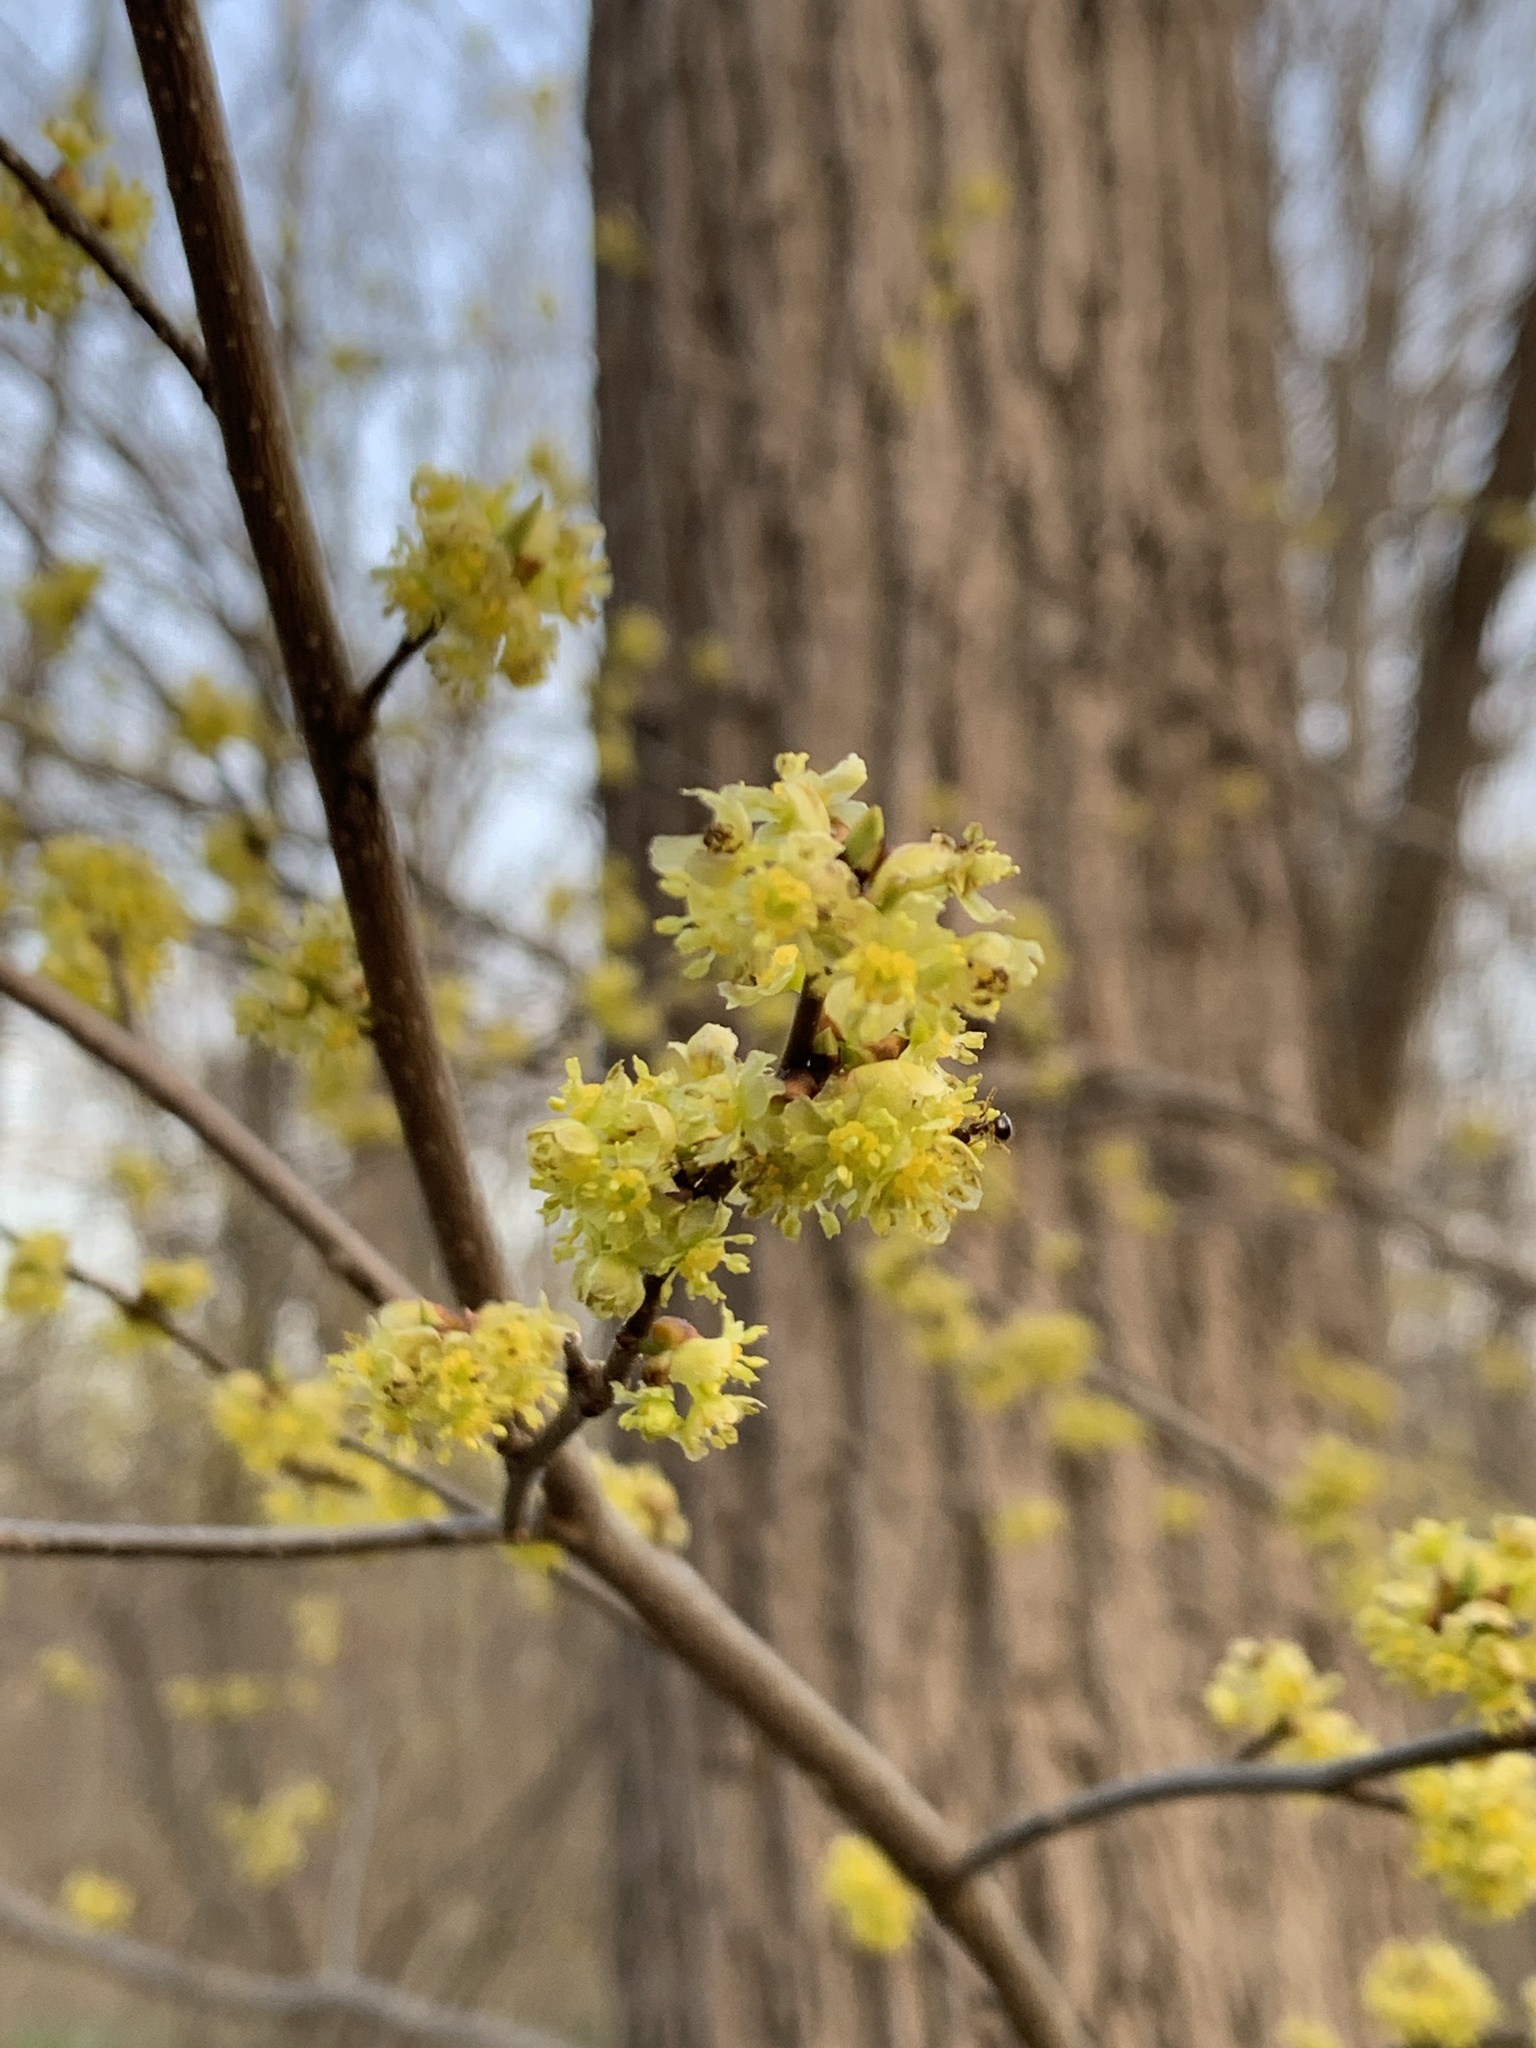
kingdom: Plantae
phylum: Tracheophyta
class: Magnoliopsida
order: Laurales
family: Lauraceae
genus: Lindera
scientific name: Lindera benzoin
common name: Spicebush
